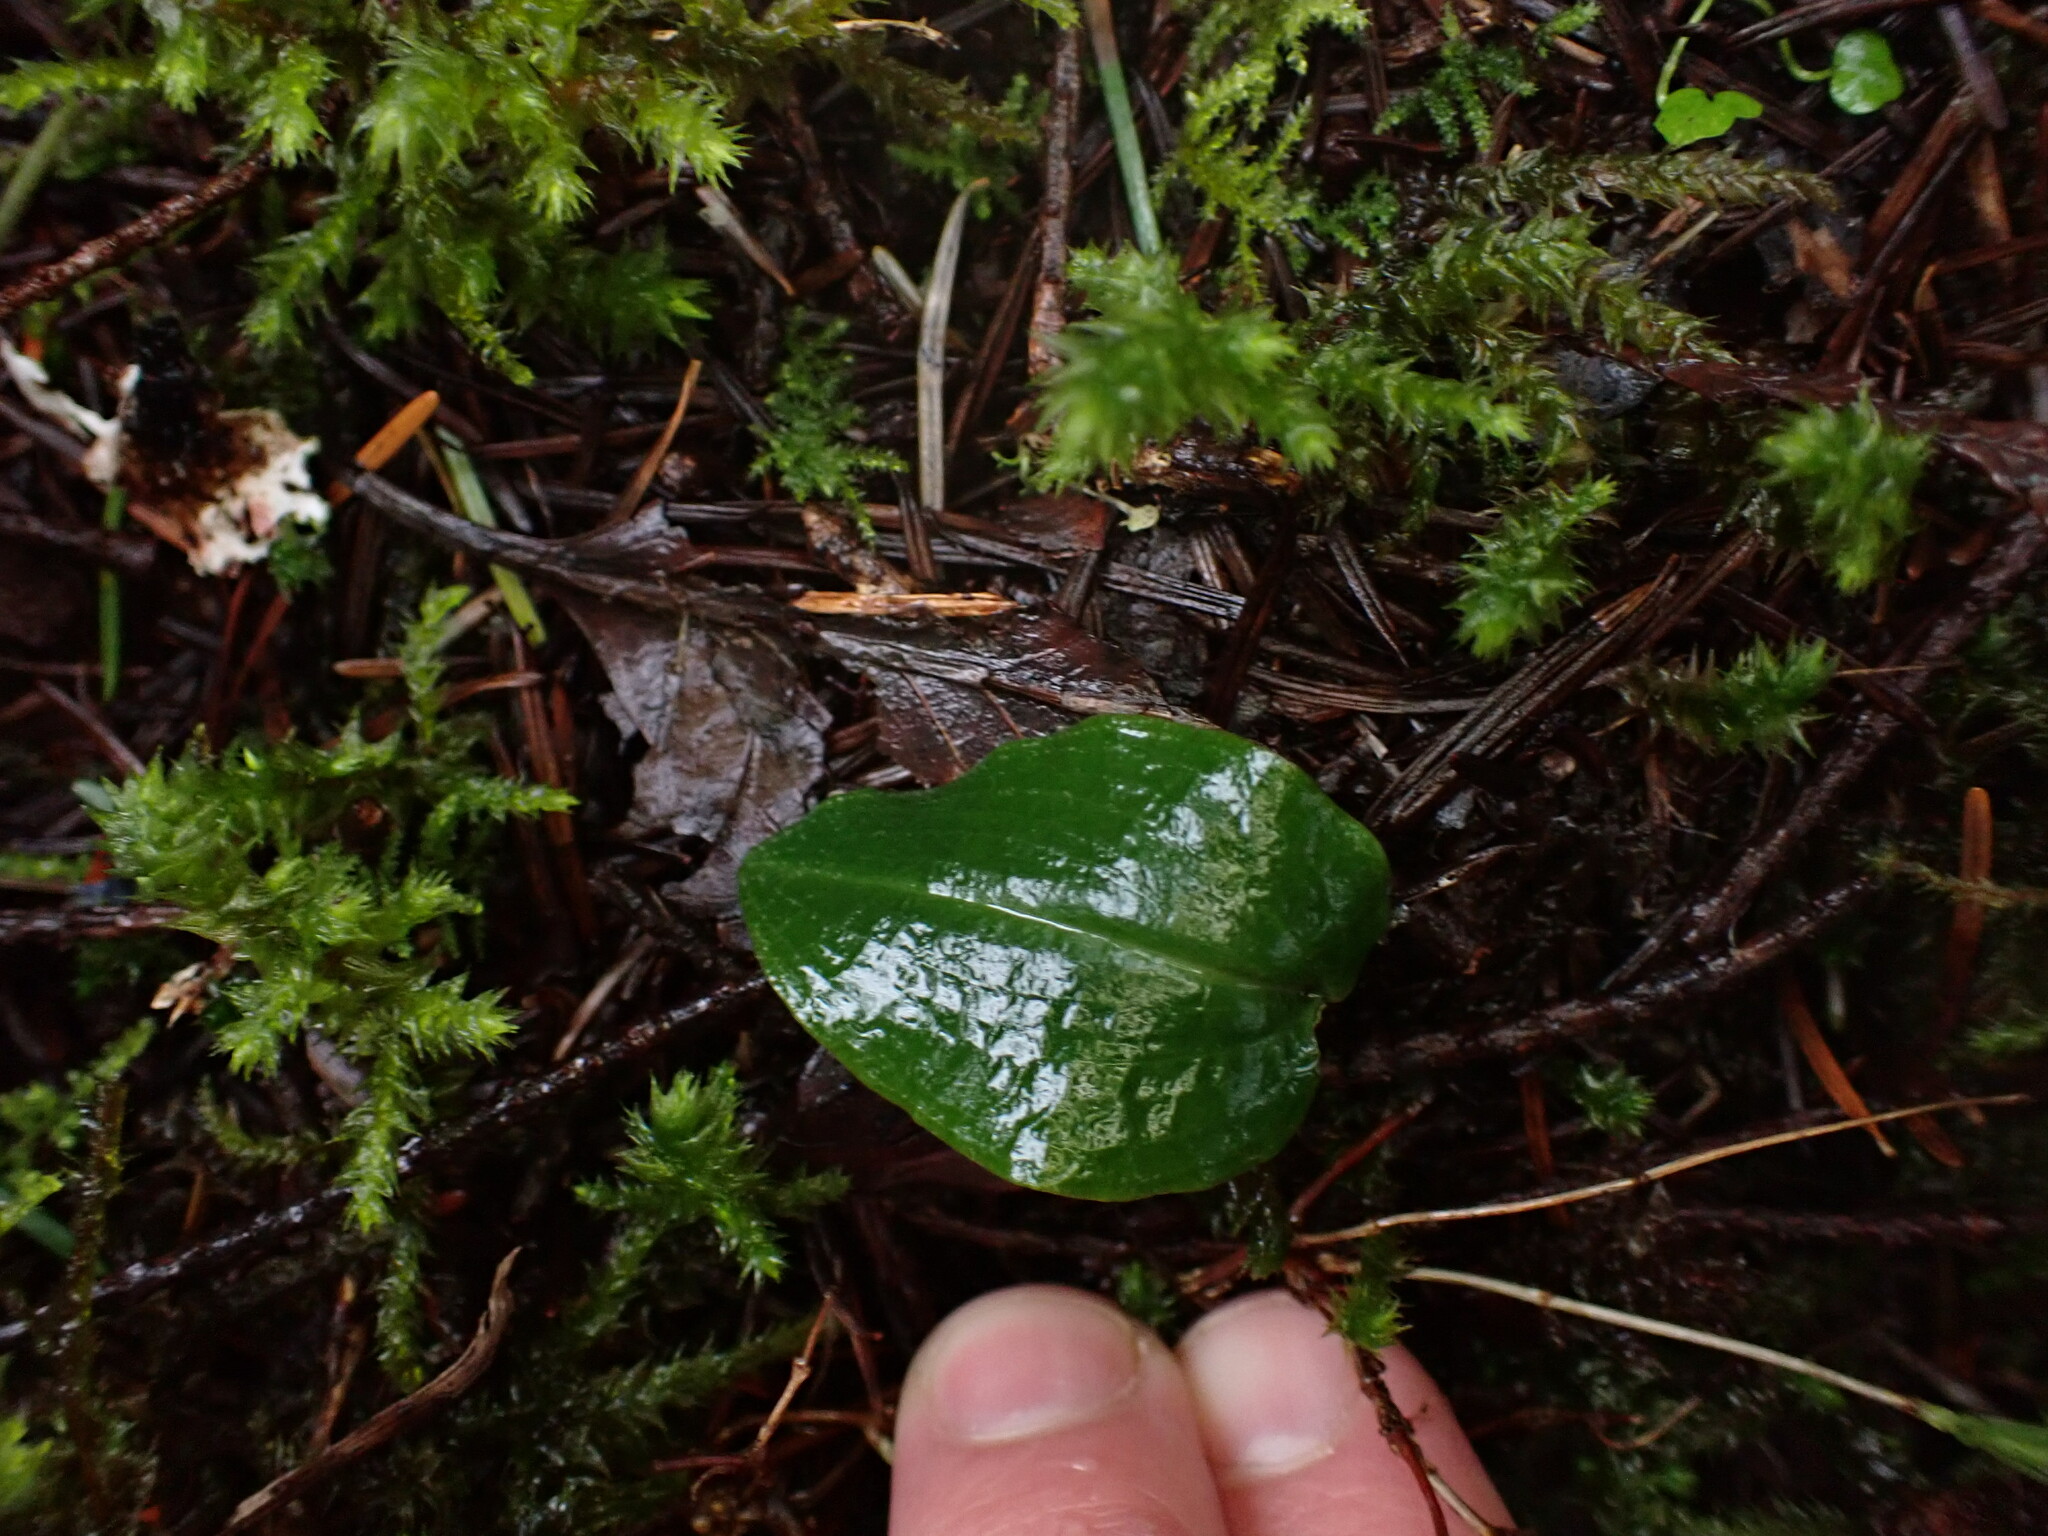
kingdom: Plantae
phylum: Tracheophyta
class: Liliopsida
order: Asparagales
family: Orchidaceae
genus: Calypso
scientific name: Calypso bulbosa
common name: Calypso
